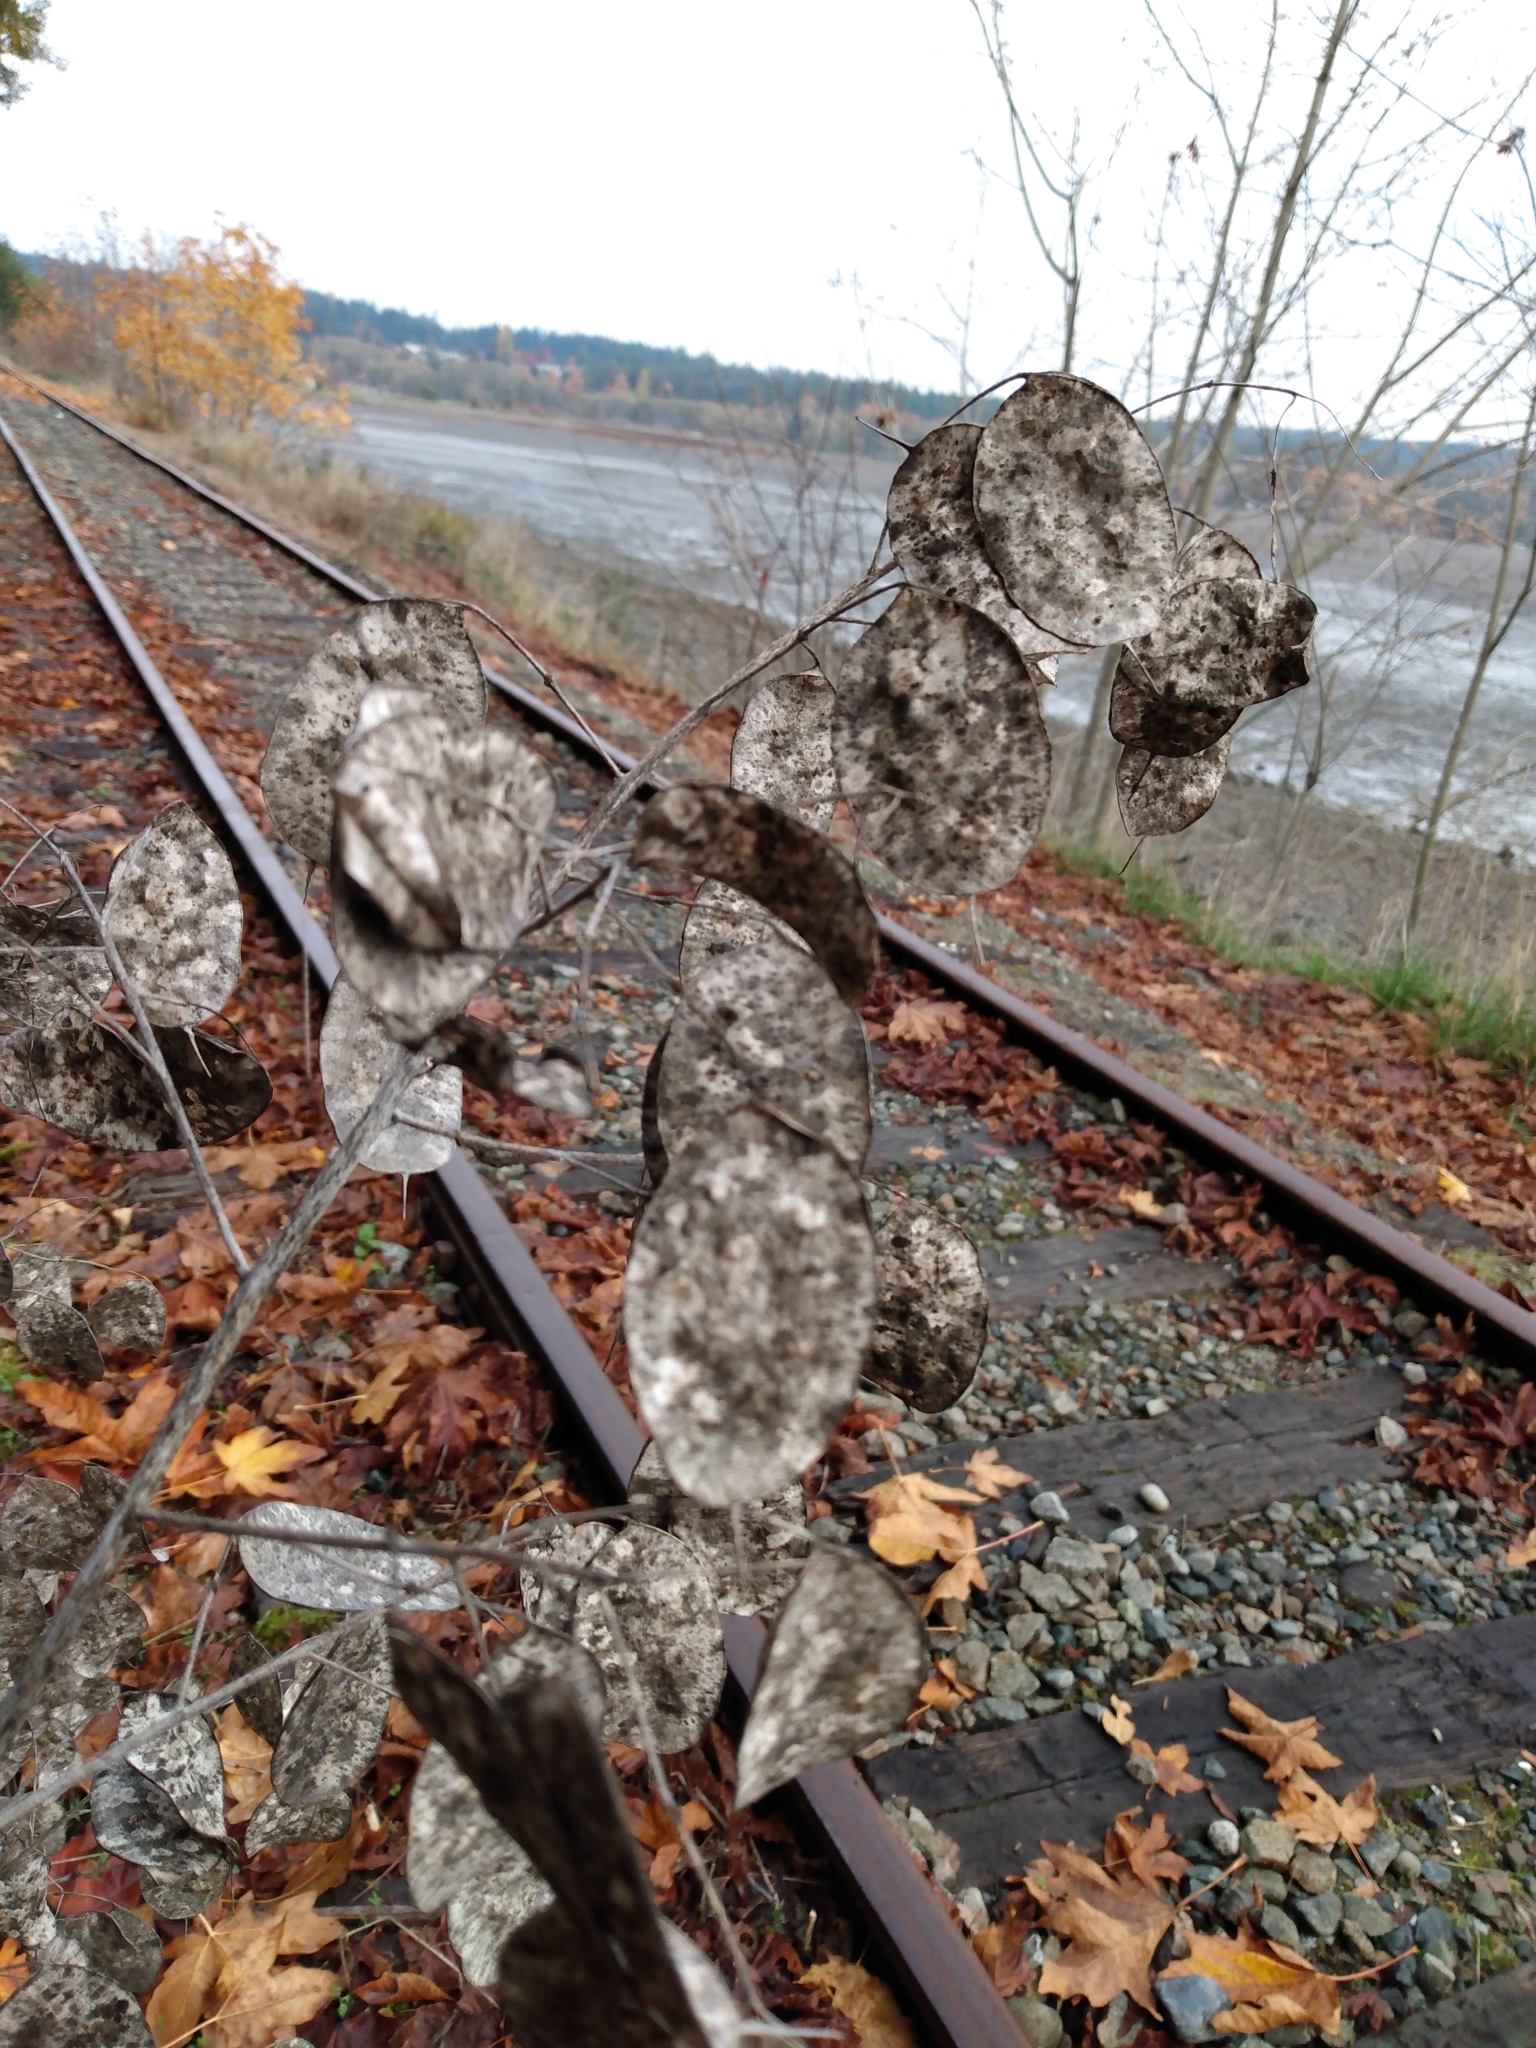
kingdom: Plantae
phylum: Tracheophyta
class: Magnoliopsida
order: Brassicales
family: Brassicaceae
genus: Lunaria
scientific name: Lunaria annua
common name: Honesty
